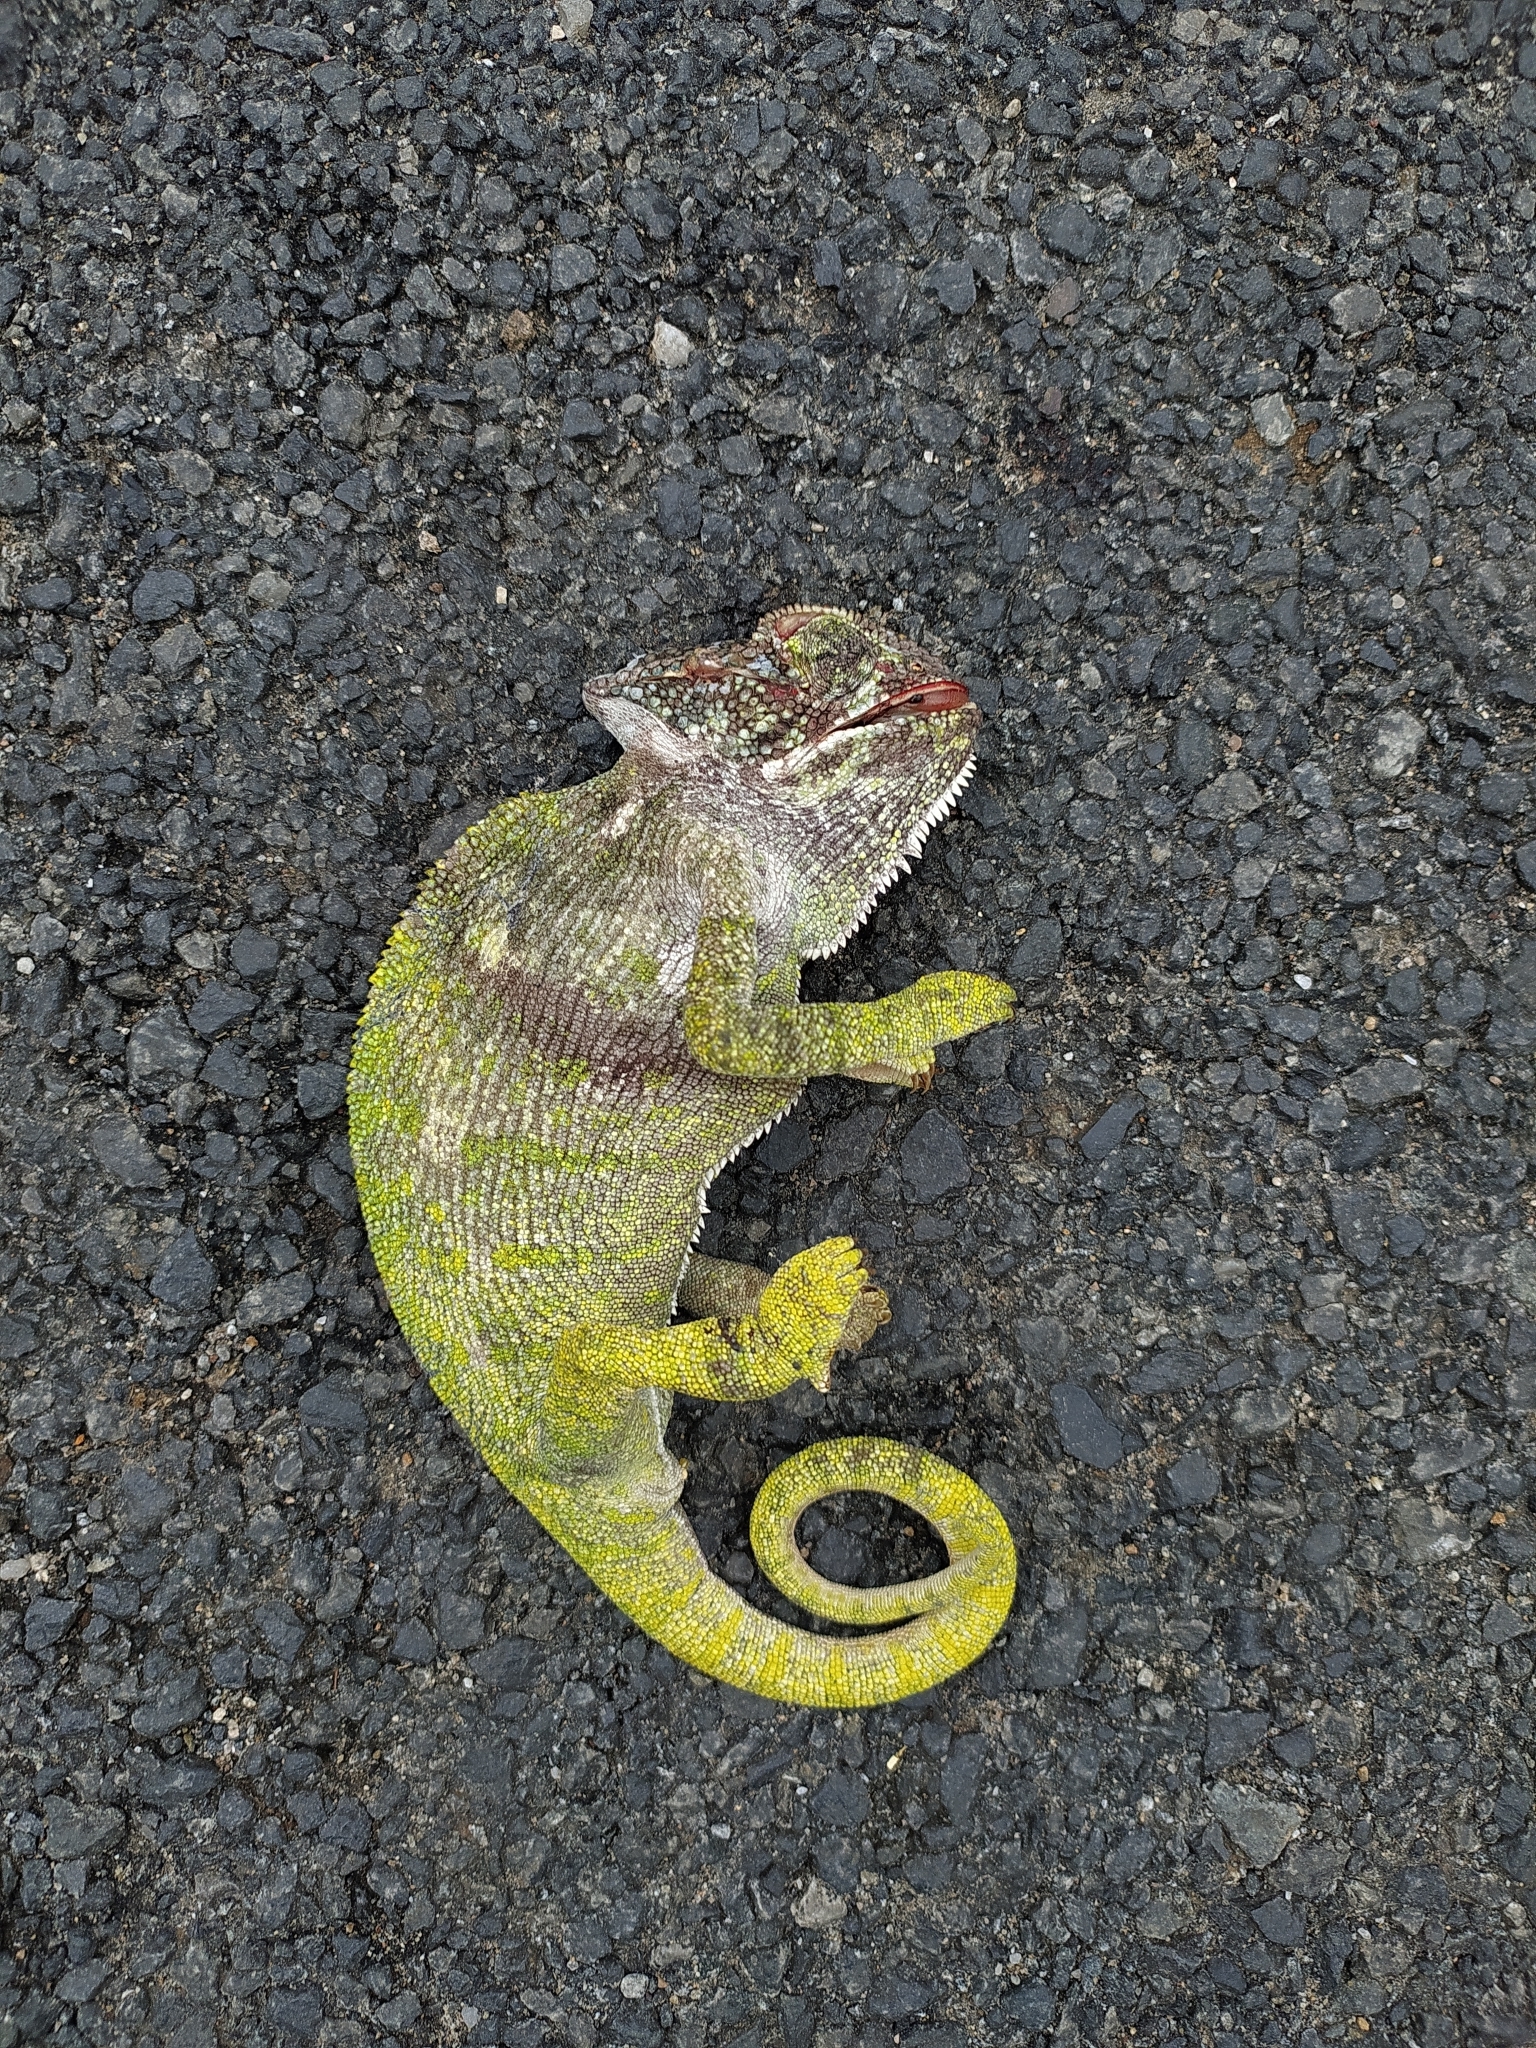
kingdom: Animalia
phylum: Chordata
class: Squamata
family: Chamaeleonidae
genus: Chamaeleo
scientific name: Chamaeleo zeylanicus
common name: Indian chameleon
